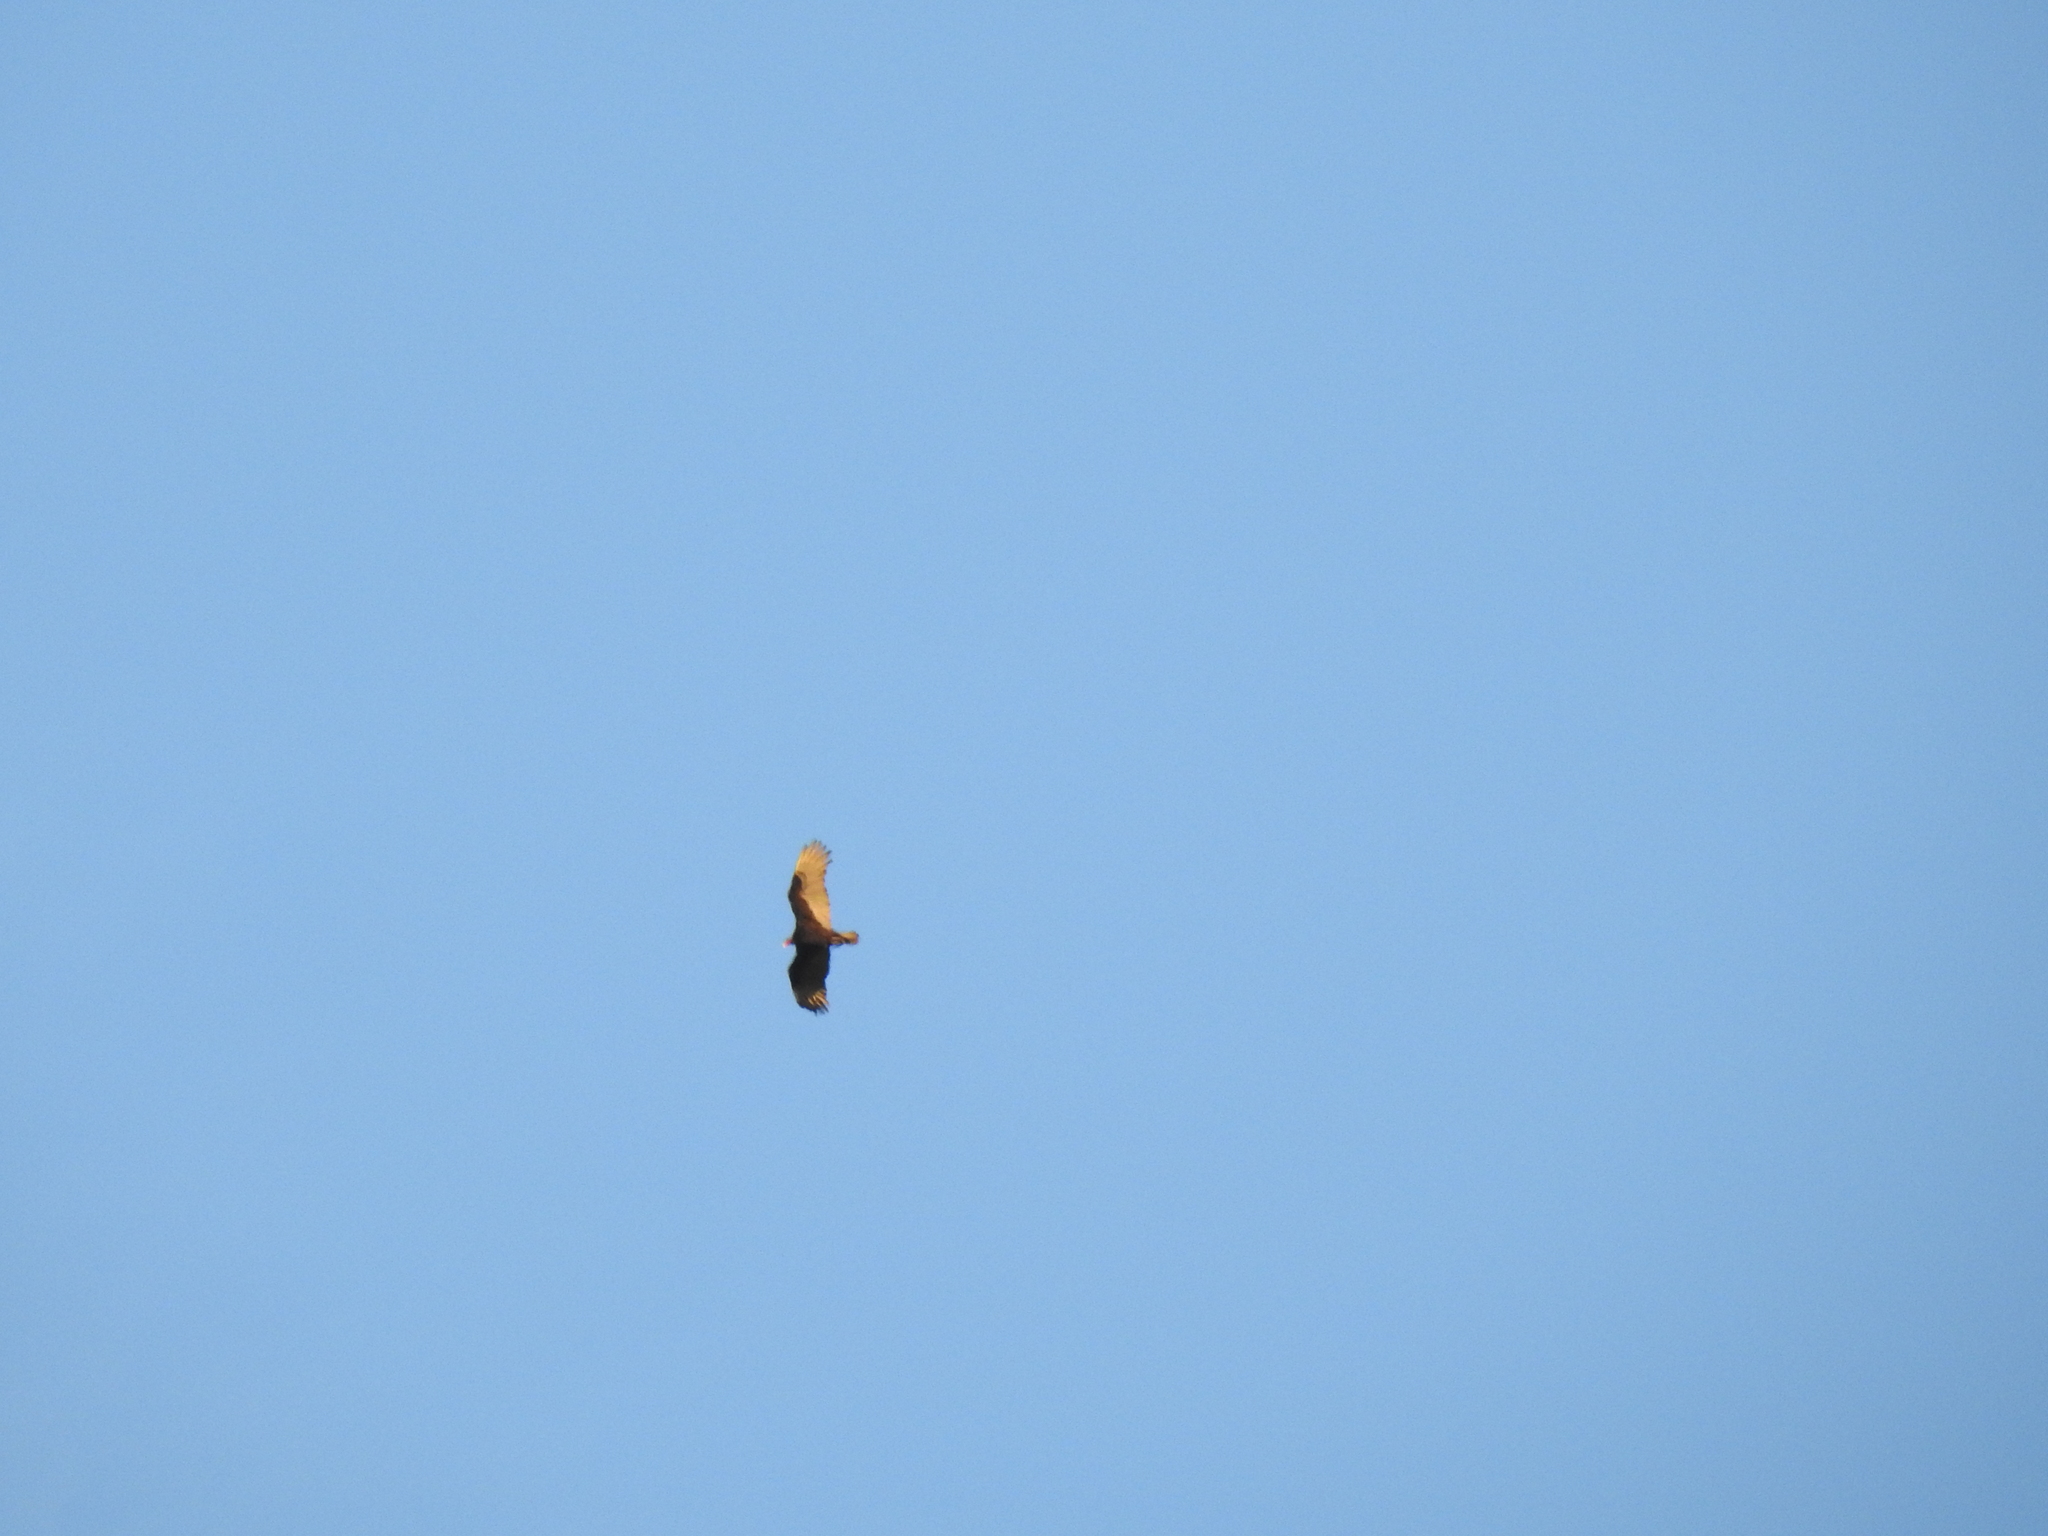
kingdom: Animalia
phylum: Chordata
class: Aves
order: Accipitriformes
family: Cathartidae
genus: Cathartes
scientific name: Cathartes aura
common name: Turkey vulture
